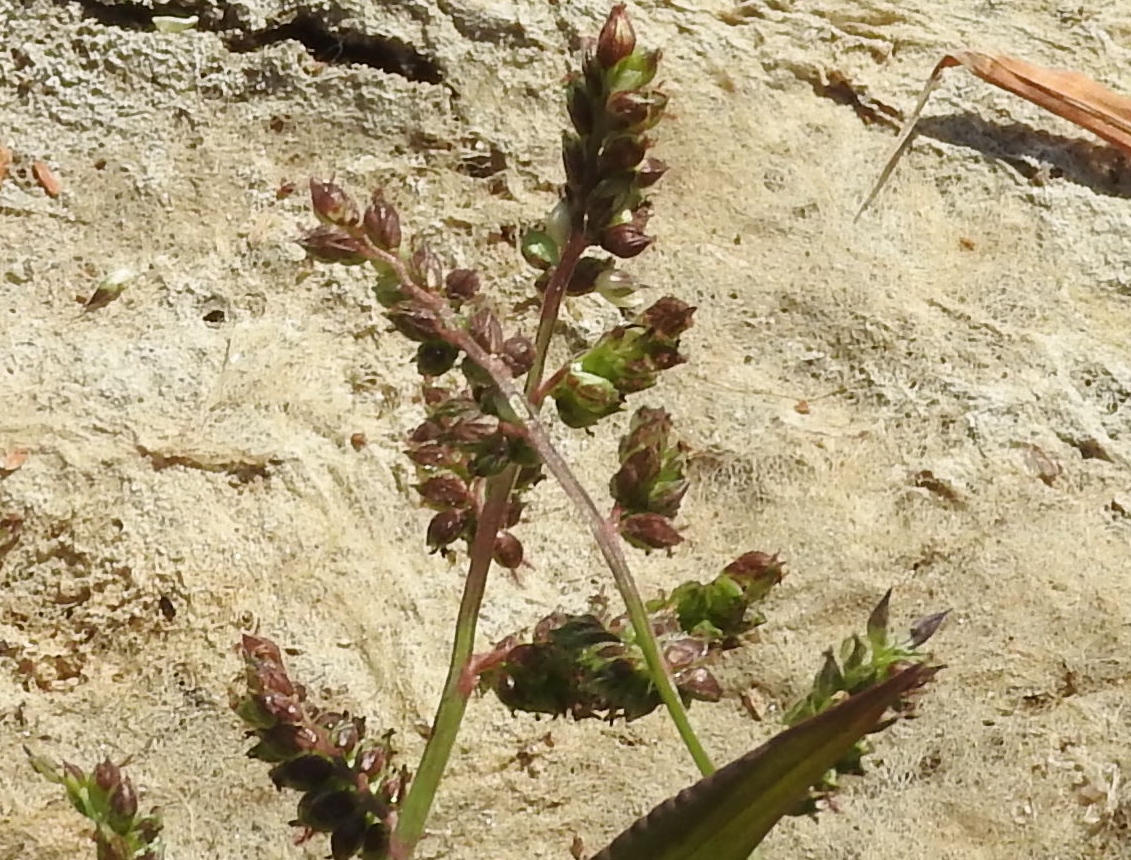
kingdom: Plantae
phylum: Tracheophyta
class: Liliopsida
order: Poales
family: Poaceae
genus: Echinochloa
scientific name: Echinochloa
